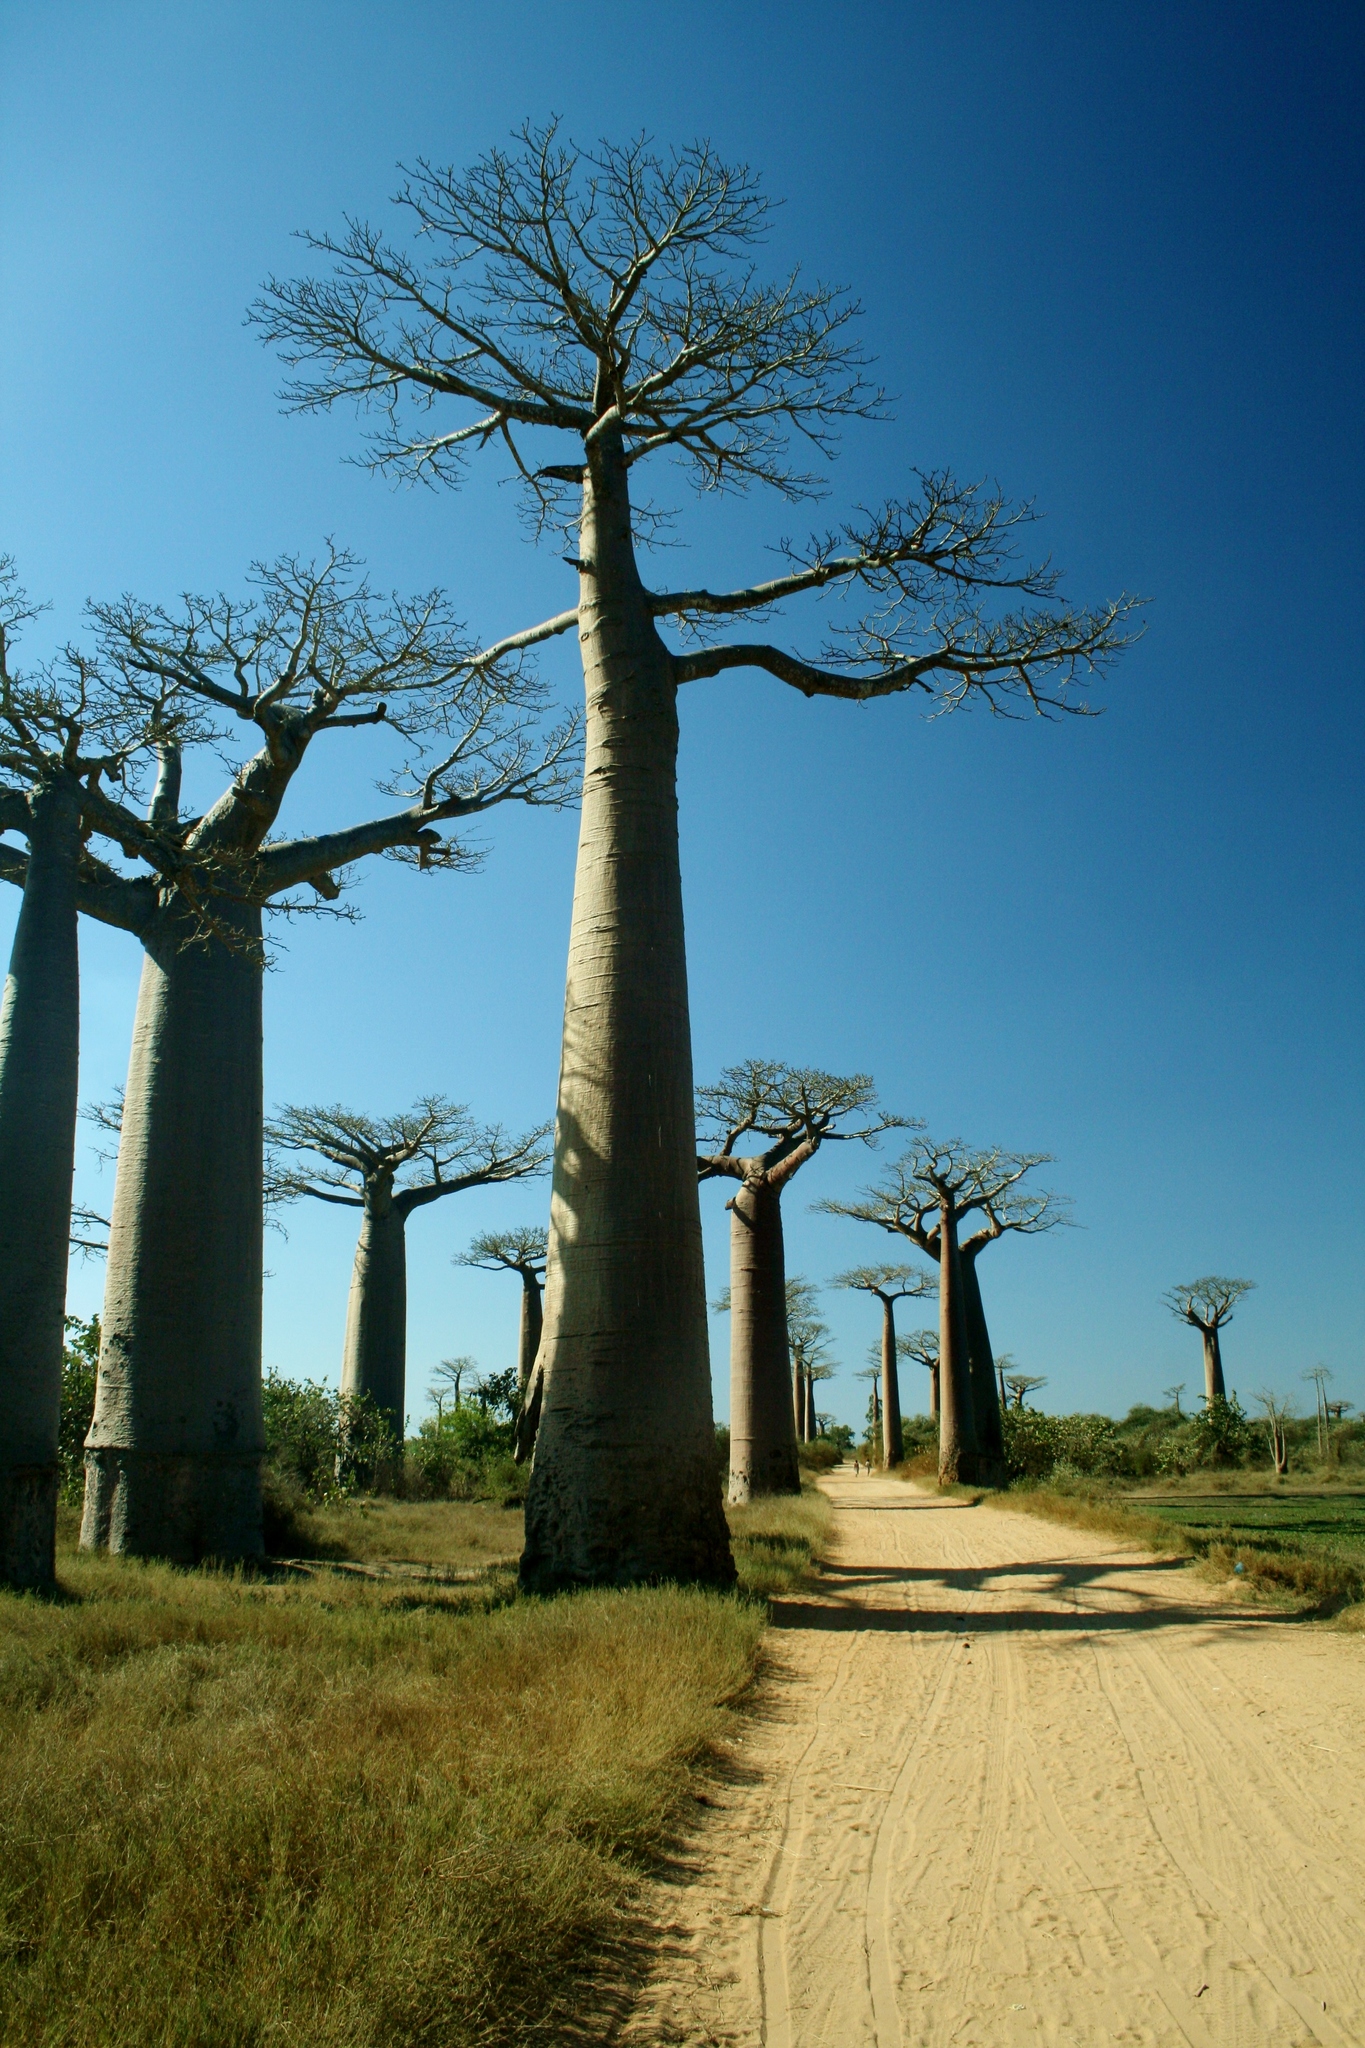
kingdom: Plantae
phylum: Tracheophyta
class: Magnoliopsida
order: Malvales
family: Malvaceae
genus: Adansonia
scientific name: Adansonia grandidieri
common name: Grandidier's baobab
